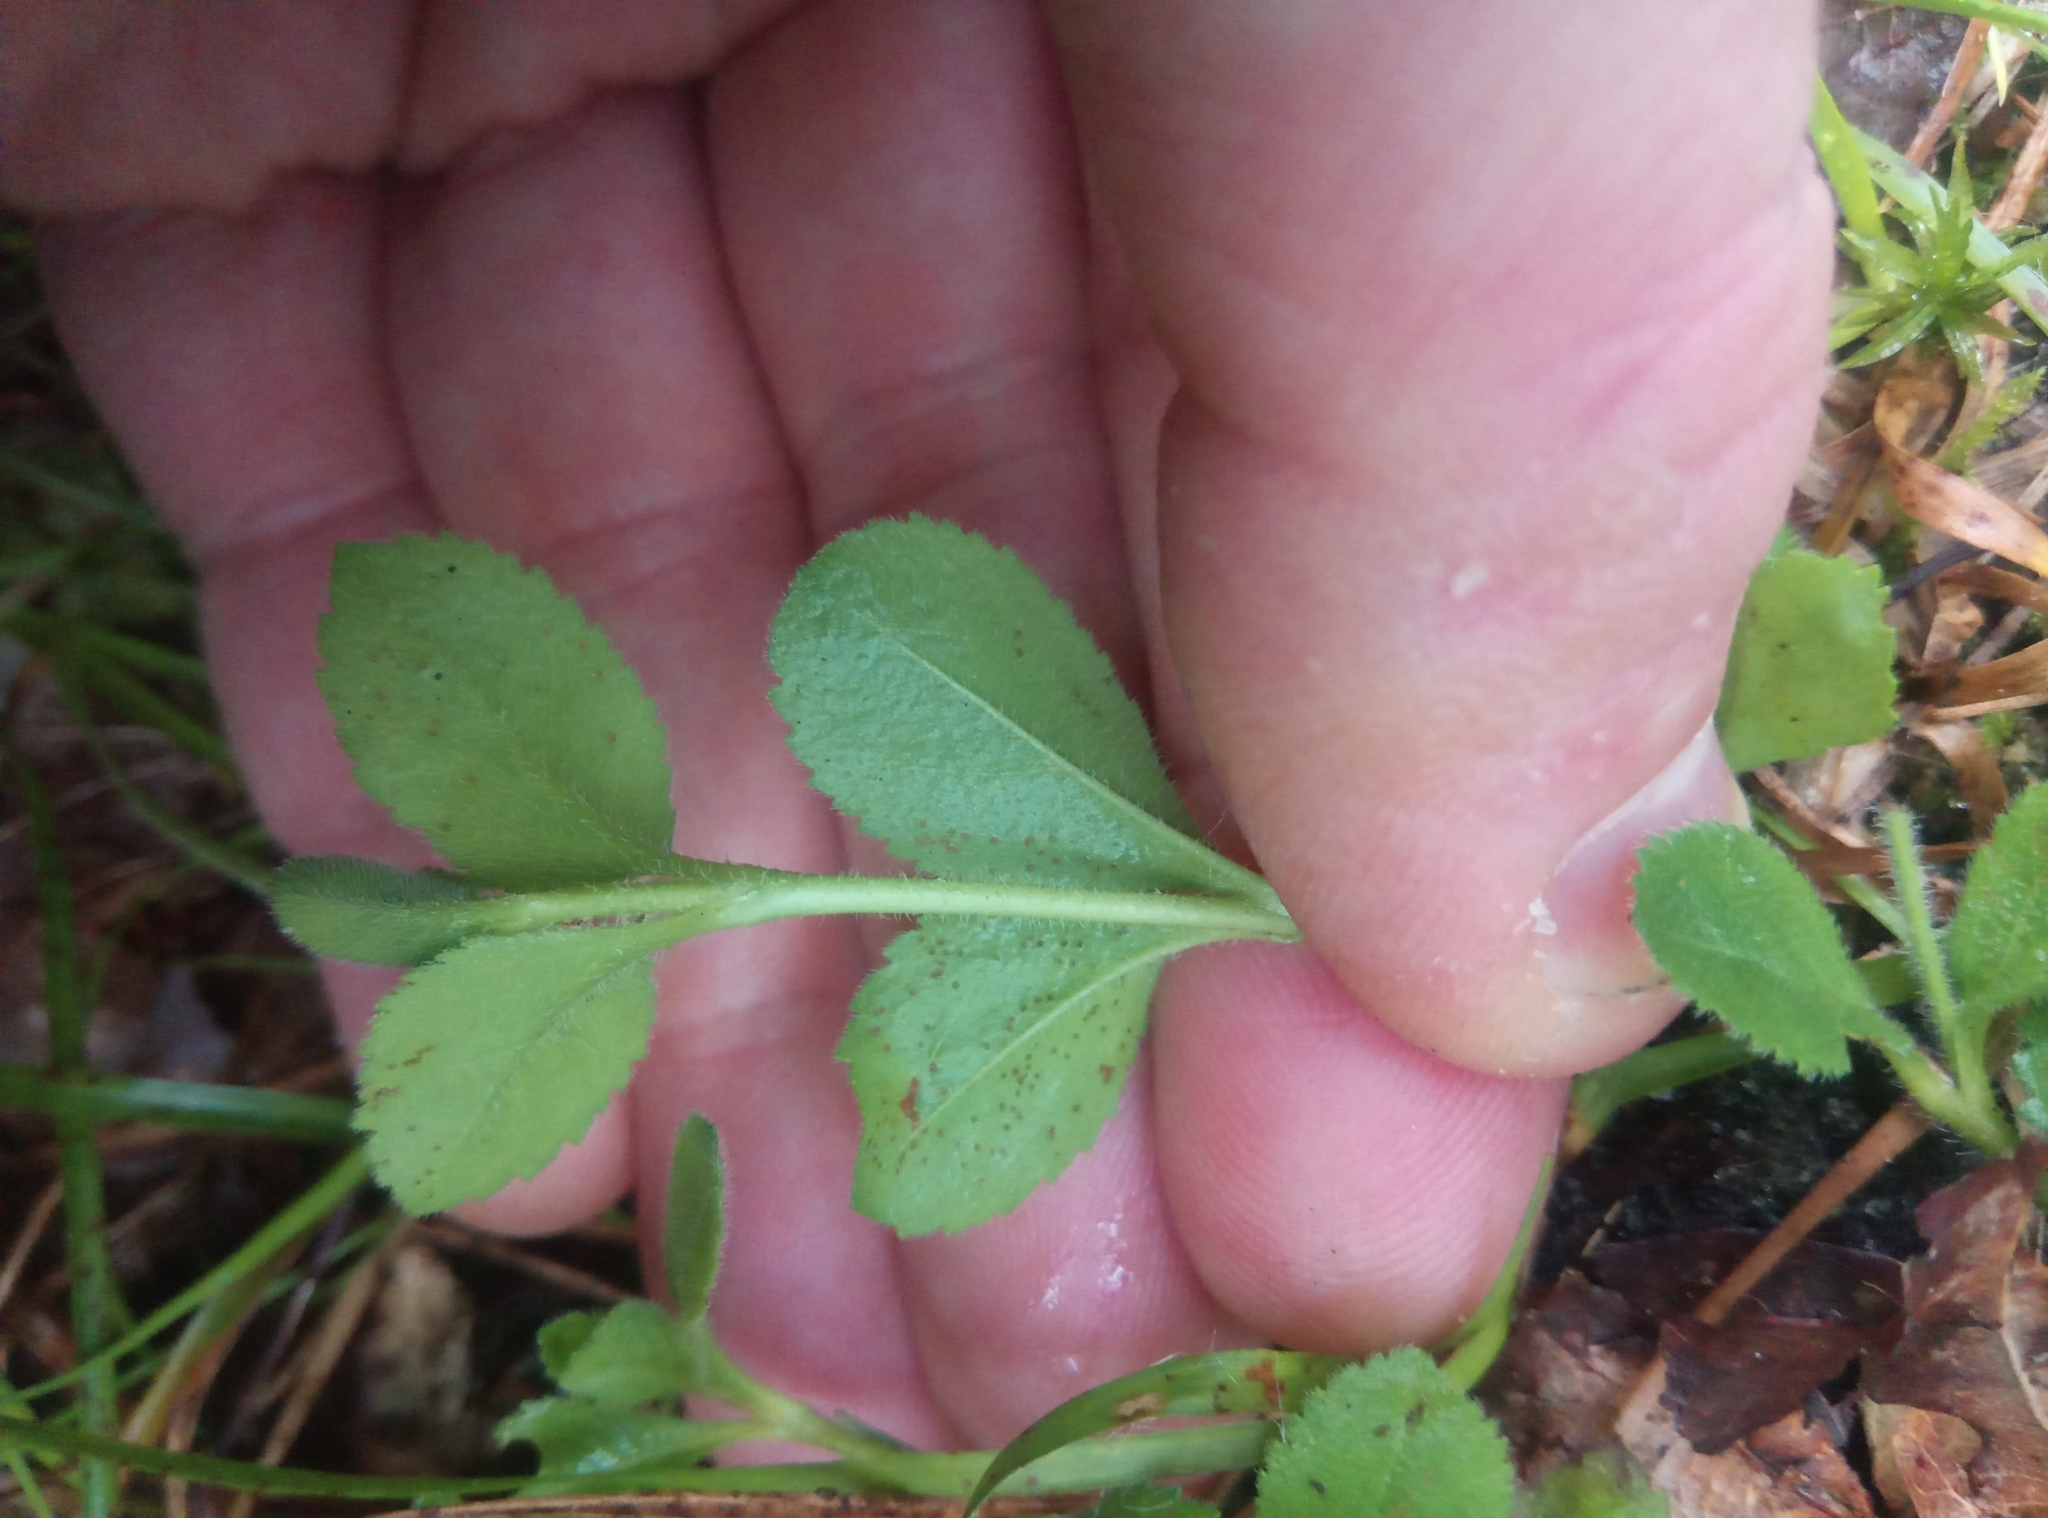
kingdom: Plantae
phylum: Tracheophyta
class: Magnoliopsida
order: Lamiales
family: Plantaginaceae
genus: Veronica
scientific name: Veronica officinalis
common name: Common speedwell
